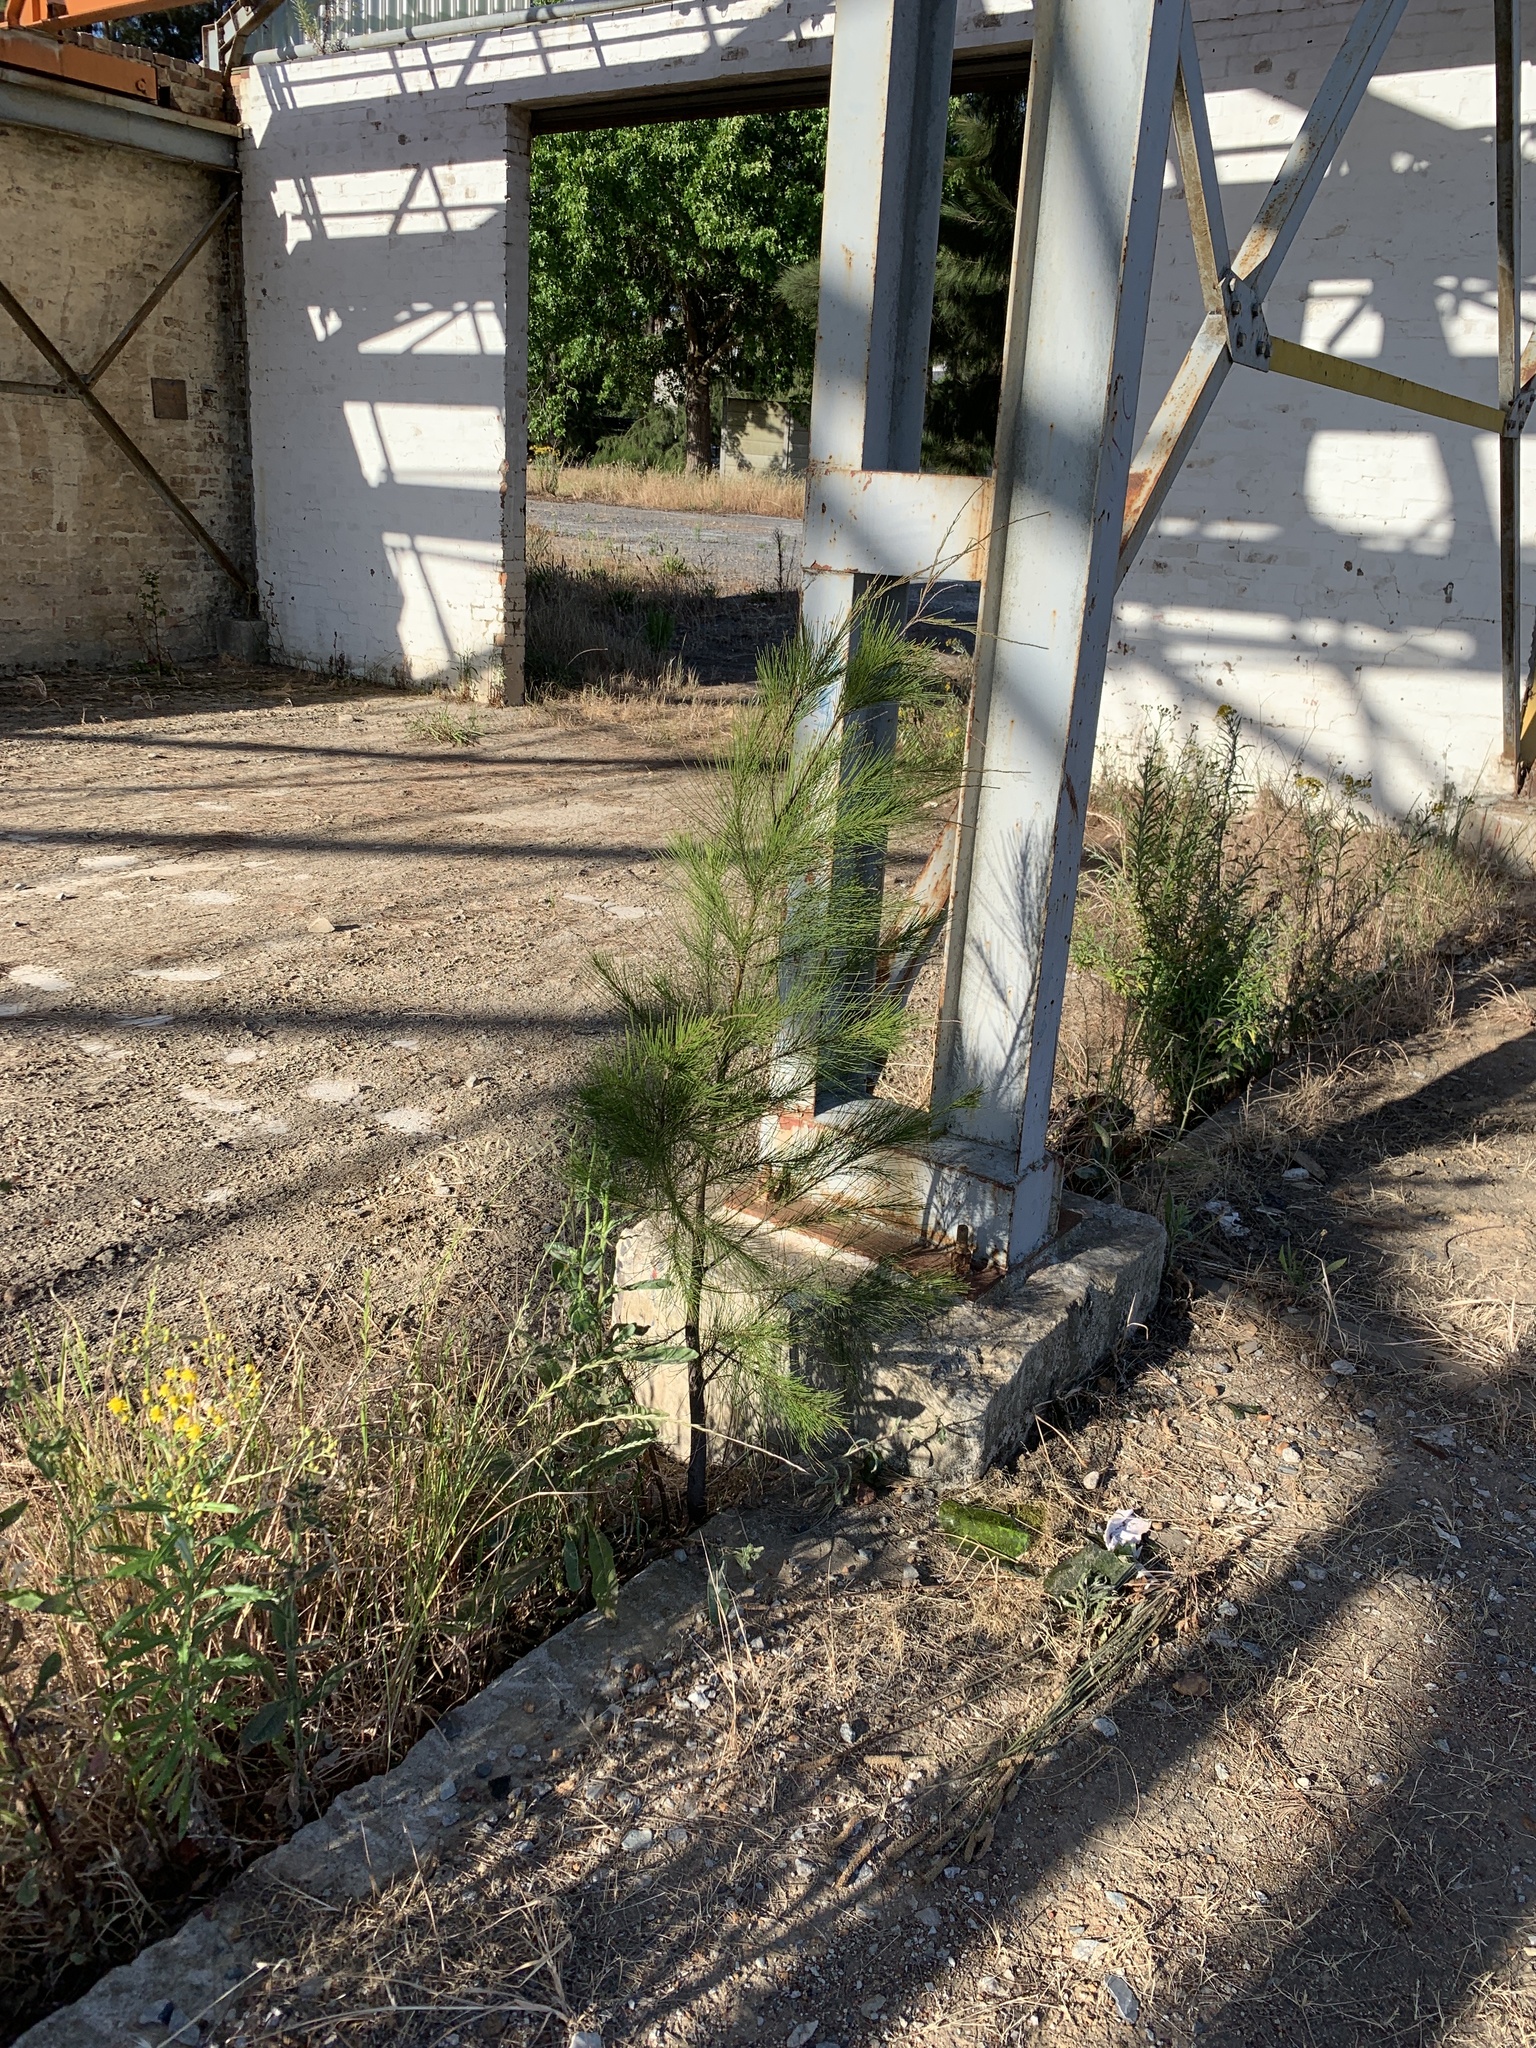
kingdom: Plantae
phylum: Tracheophyta
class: Magnoliopsida
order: Fagales
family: Casuarinaceae
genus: Casuarina
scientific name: Casuarina cunninghamiana
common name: River sheoak
